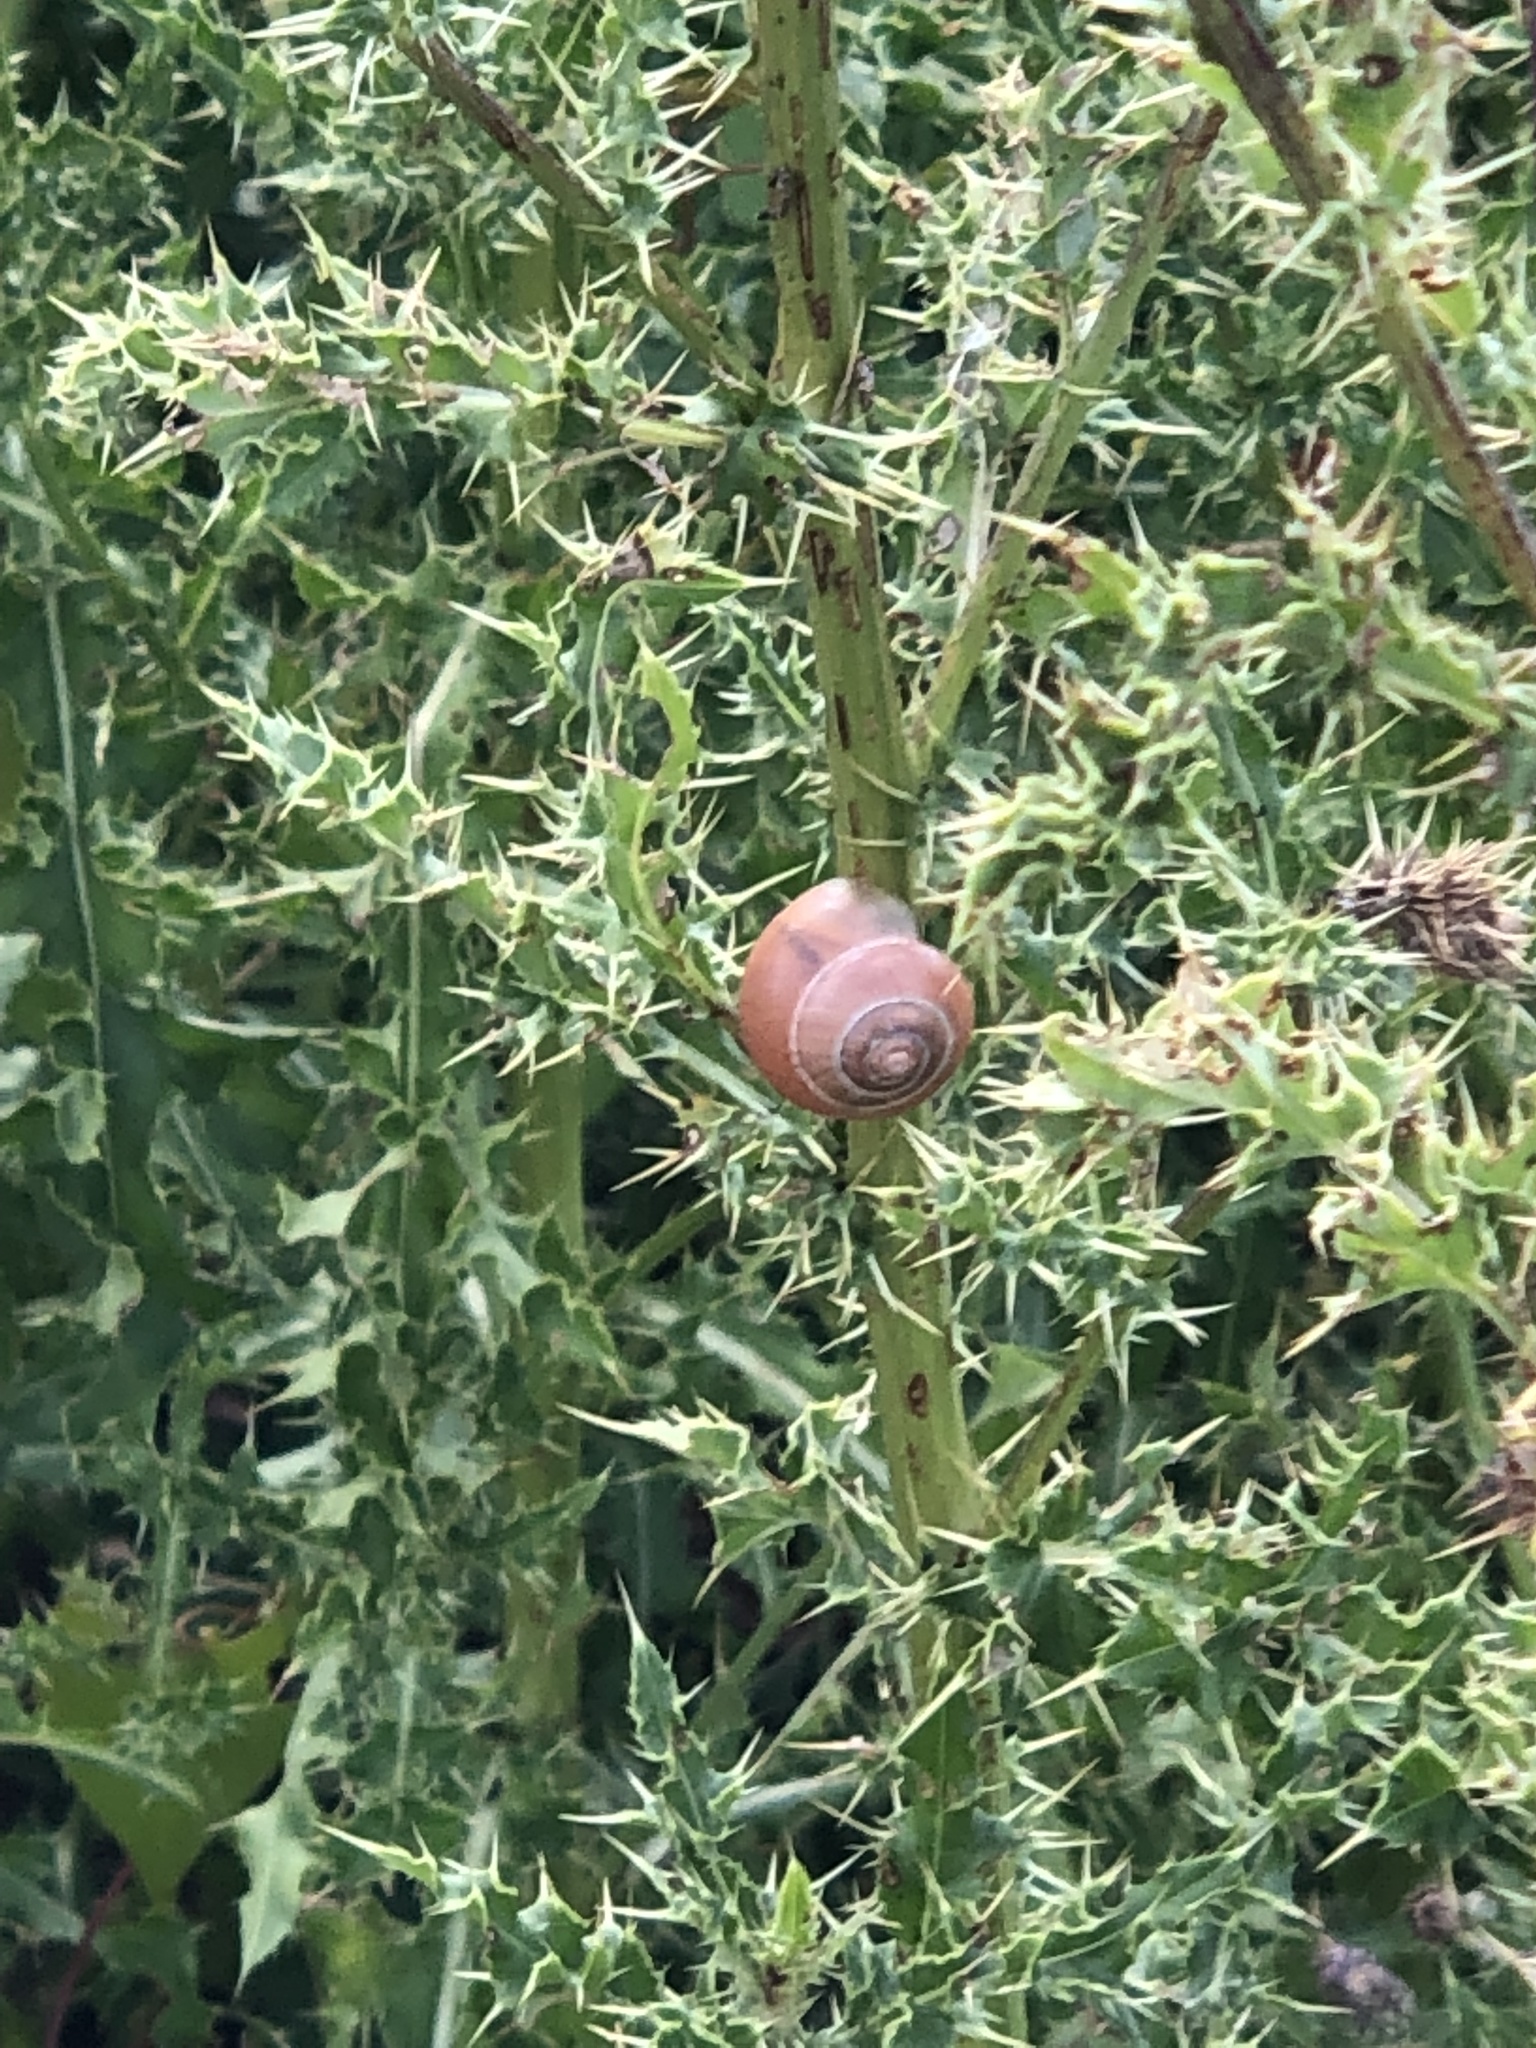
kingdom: Animalia
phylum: Mollusca
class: Gastropoda
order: Stylommatophora
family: Helicidae
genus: Cepaea
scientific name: Cepaea nemoralis
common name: Grovesnail
